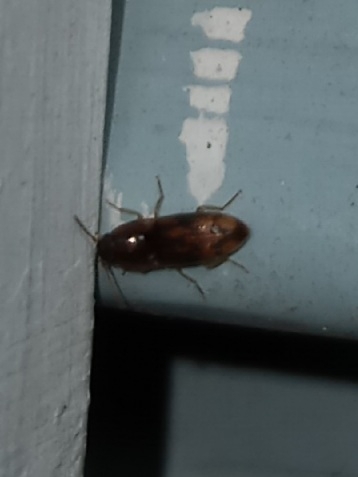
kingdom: Animalia
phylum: Arthropoda
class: Insecta
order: Coleoptera
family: Elateridae
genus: Monocrepidius
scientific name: Monocrepidius bellus
